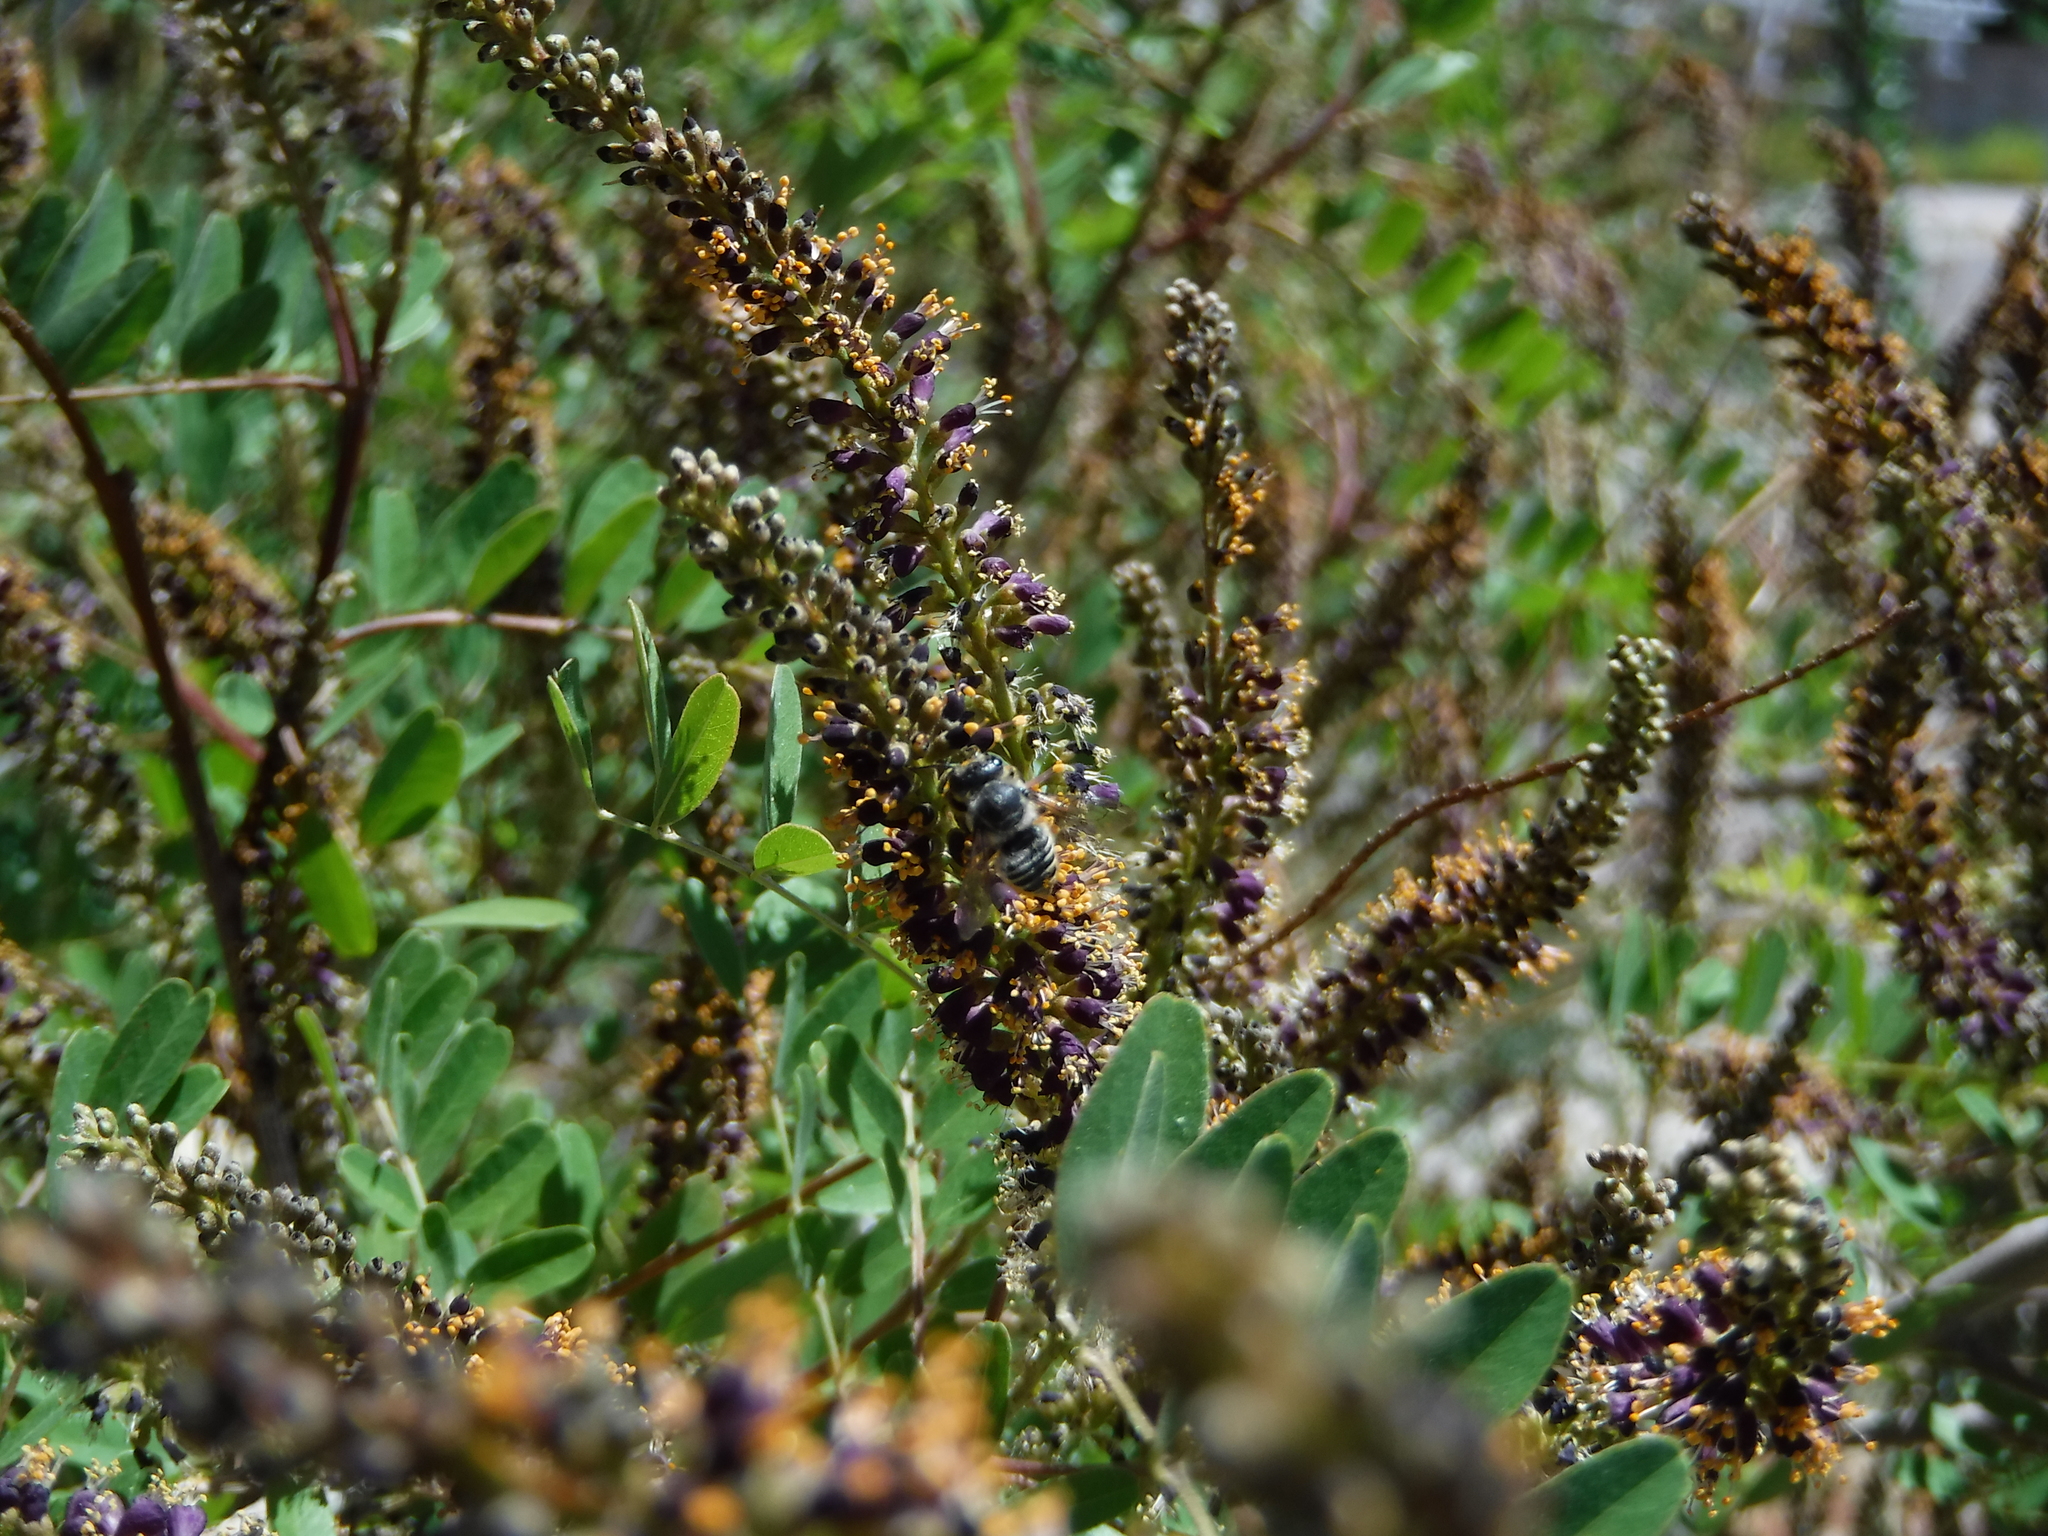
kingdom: Animalia
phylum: Arthropoda
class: Insecta
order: Hymenoptera
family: Megachilidae
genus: Megachile
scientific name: Megachile
